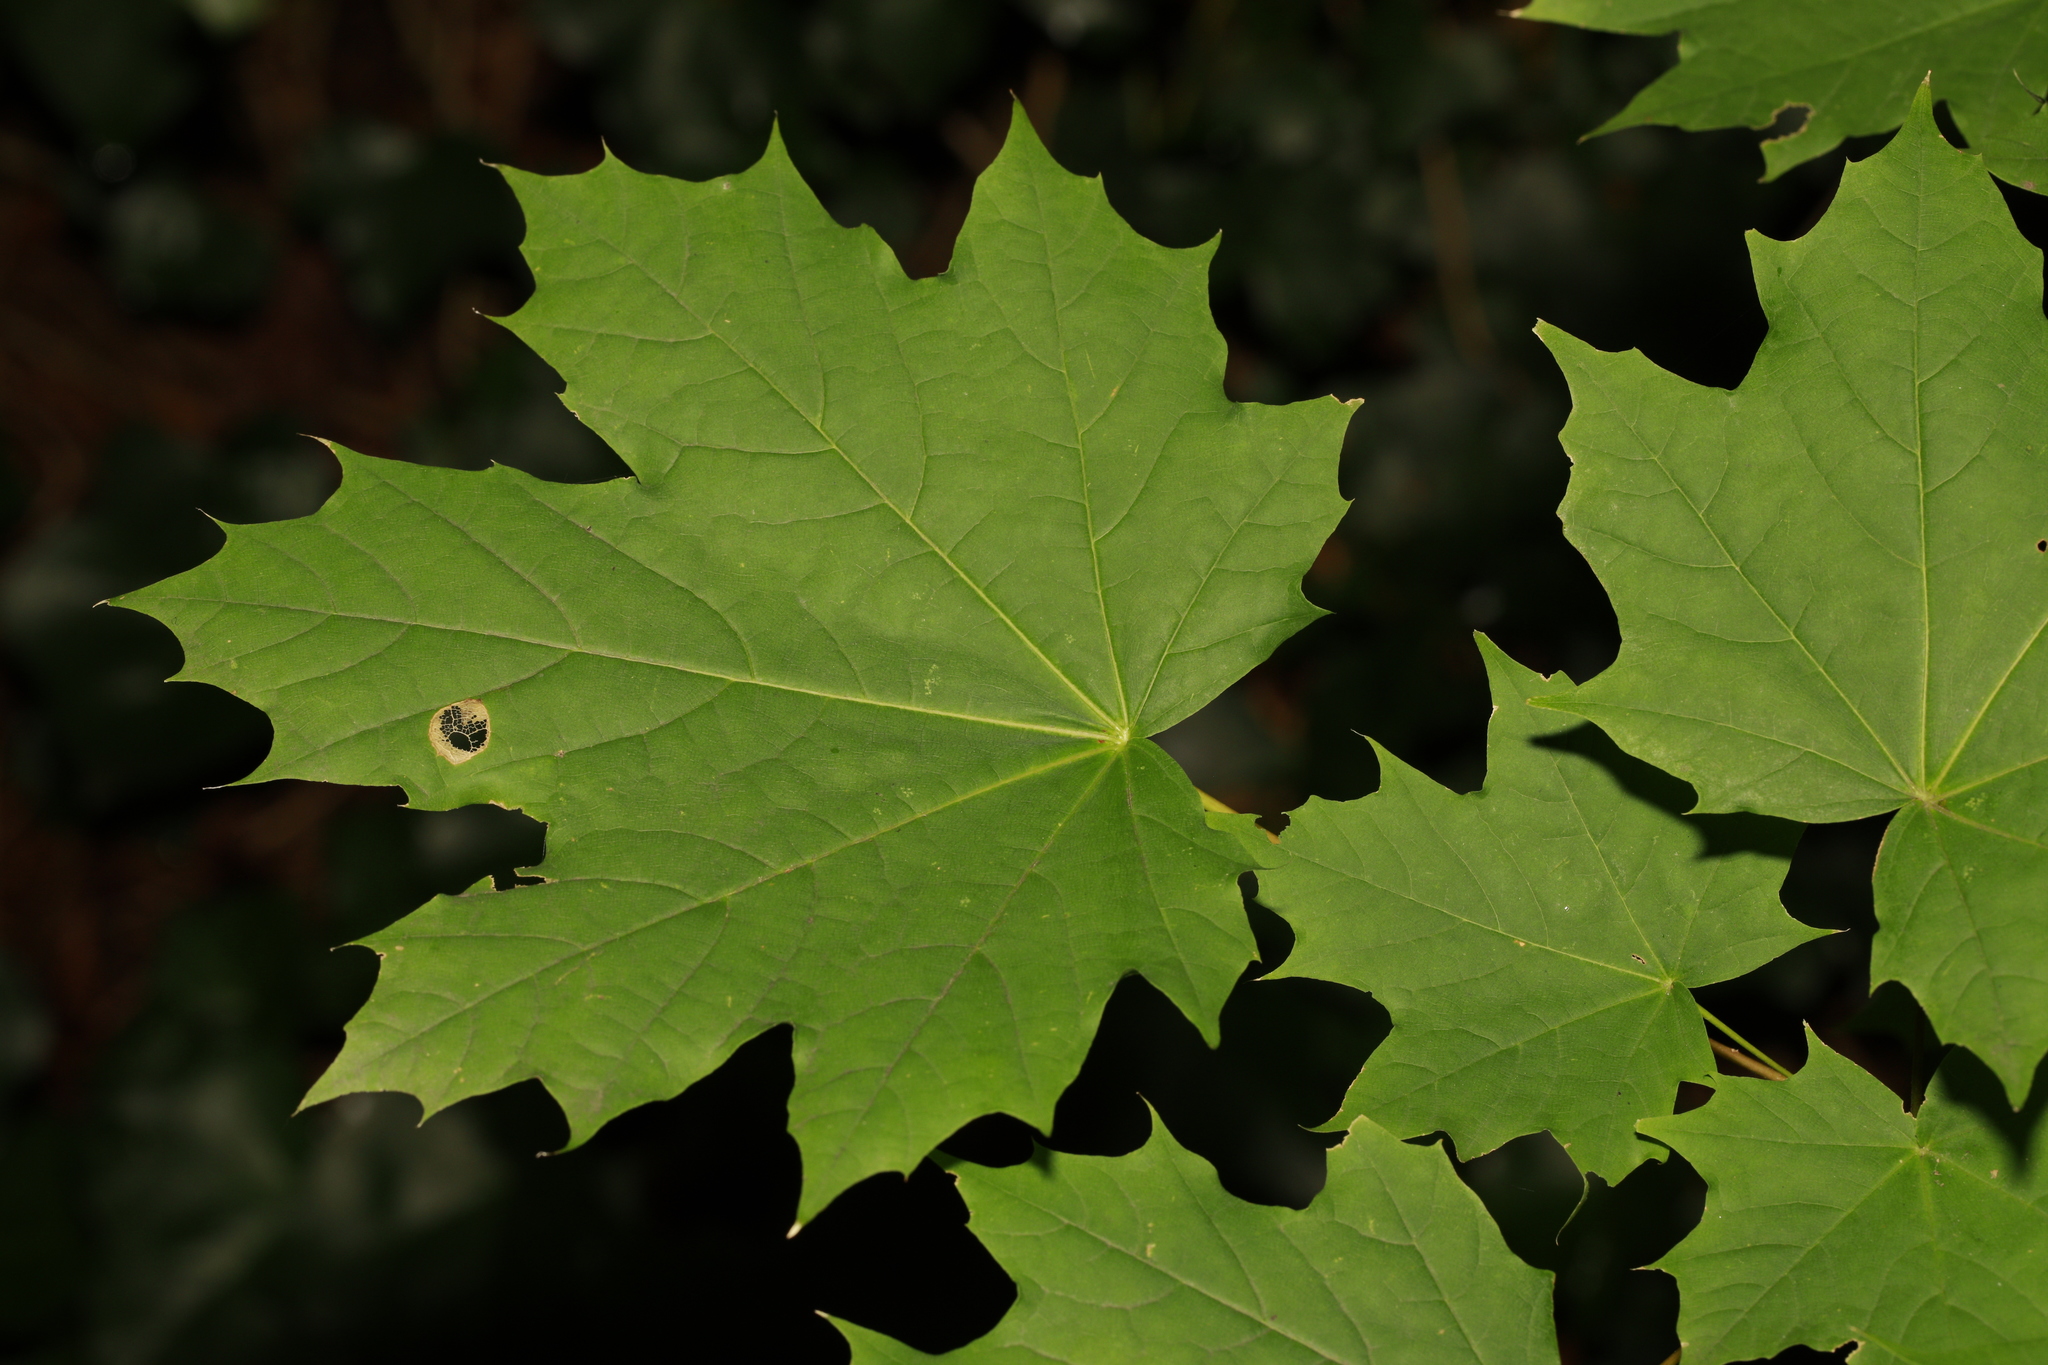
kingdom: Plantae
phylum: Tracheophyta
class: Magnoliopsida
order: Sapindales
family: Sapindaceae
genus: Acer
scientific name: Acer platanoides
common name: Norway maple
